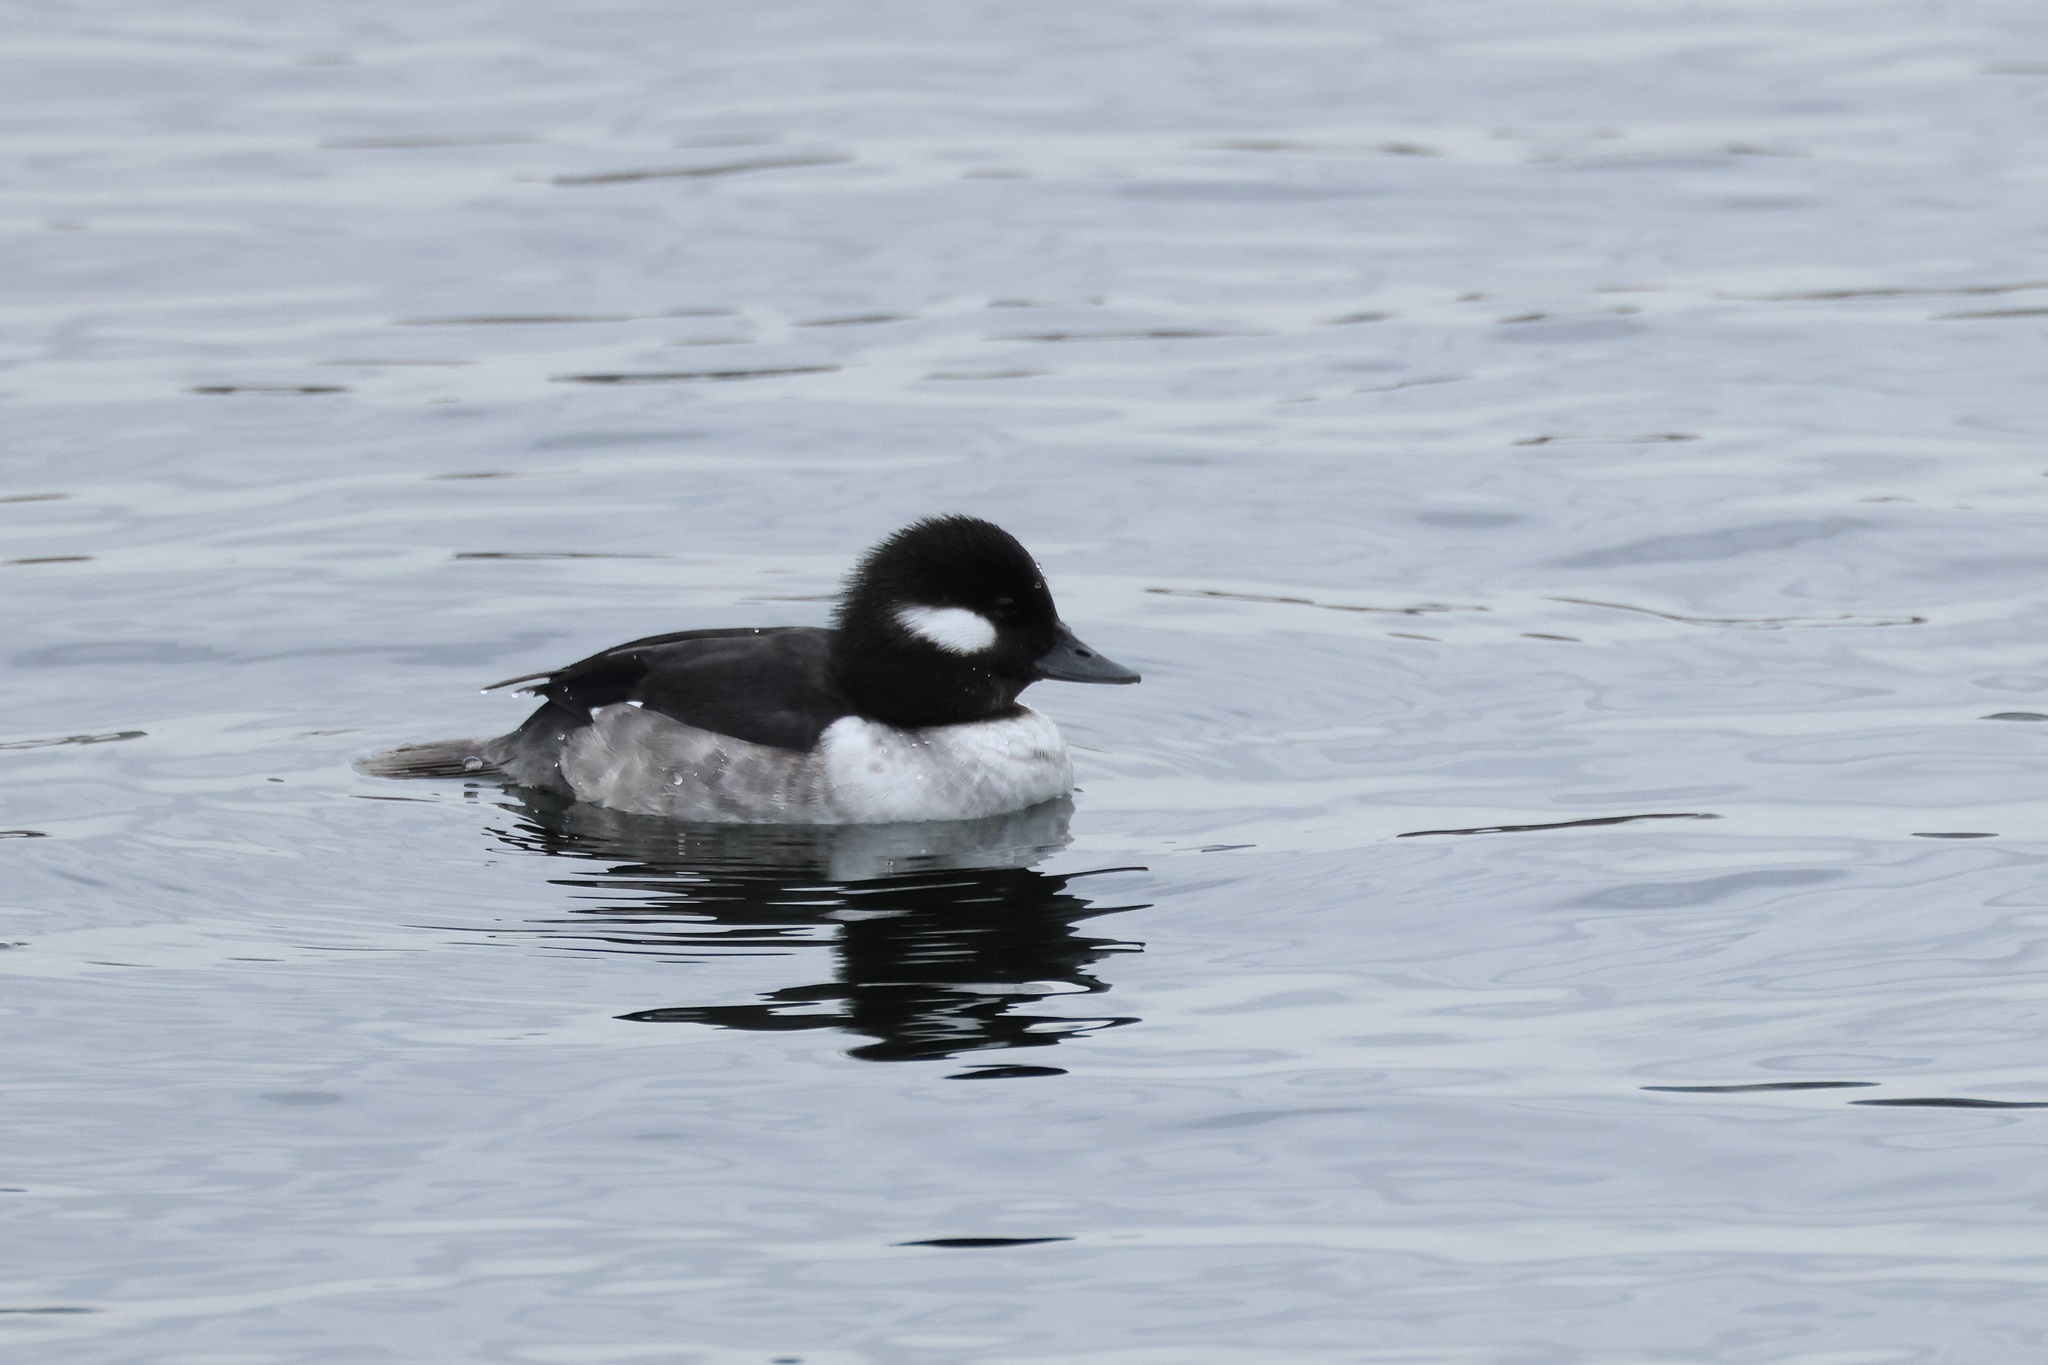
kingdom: Animalia
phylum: Chordata
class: Aves
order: Anseriformes
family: Anatidae
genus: Bucephala
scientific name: Bucephala albeola
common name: Bufflehead
